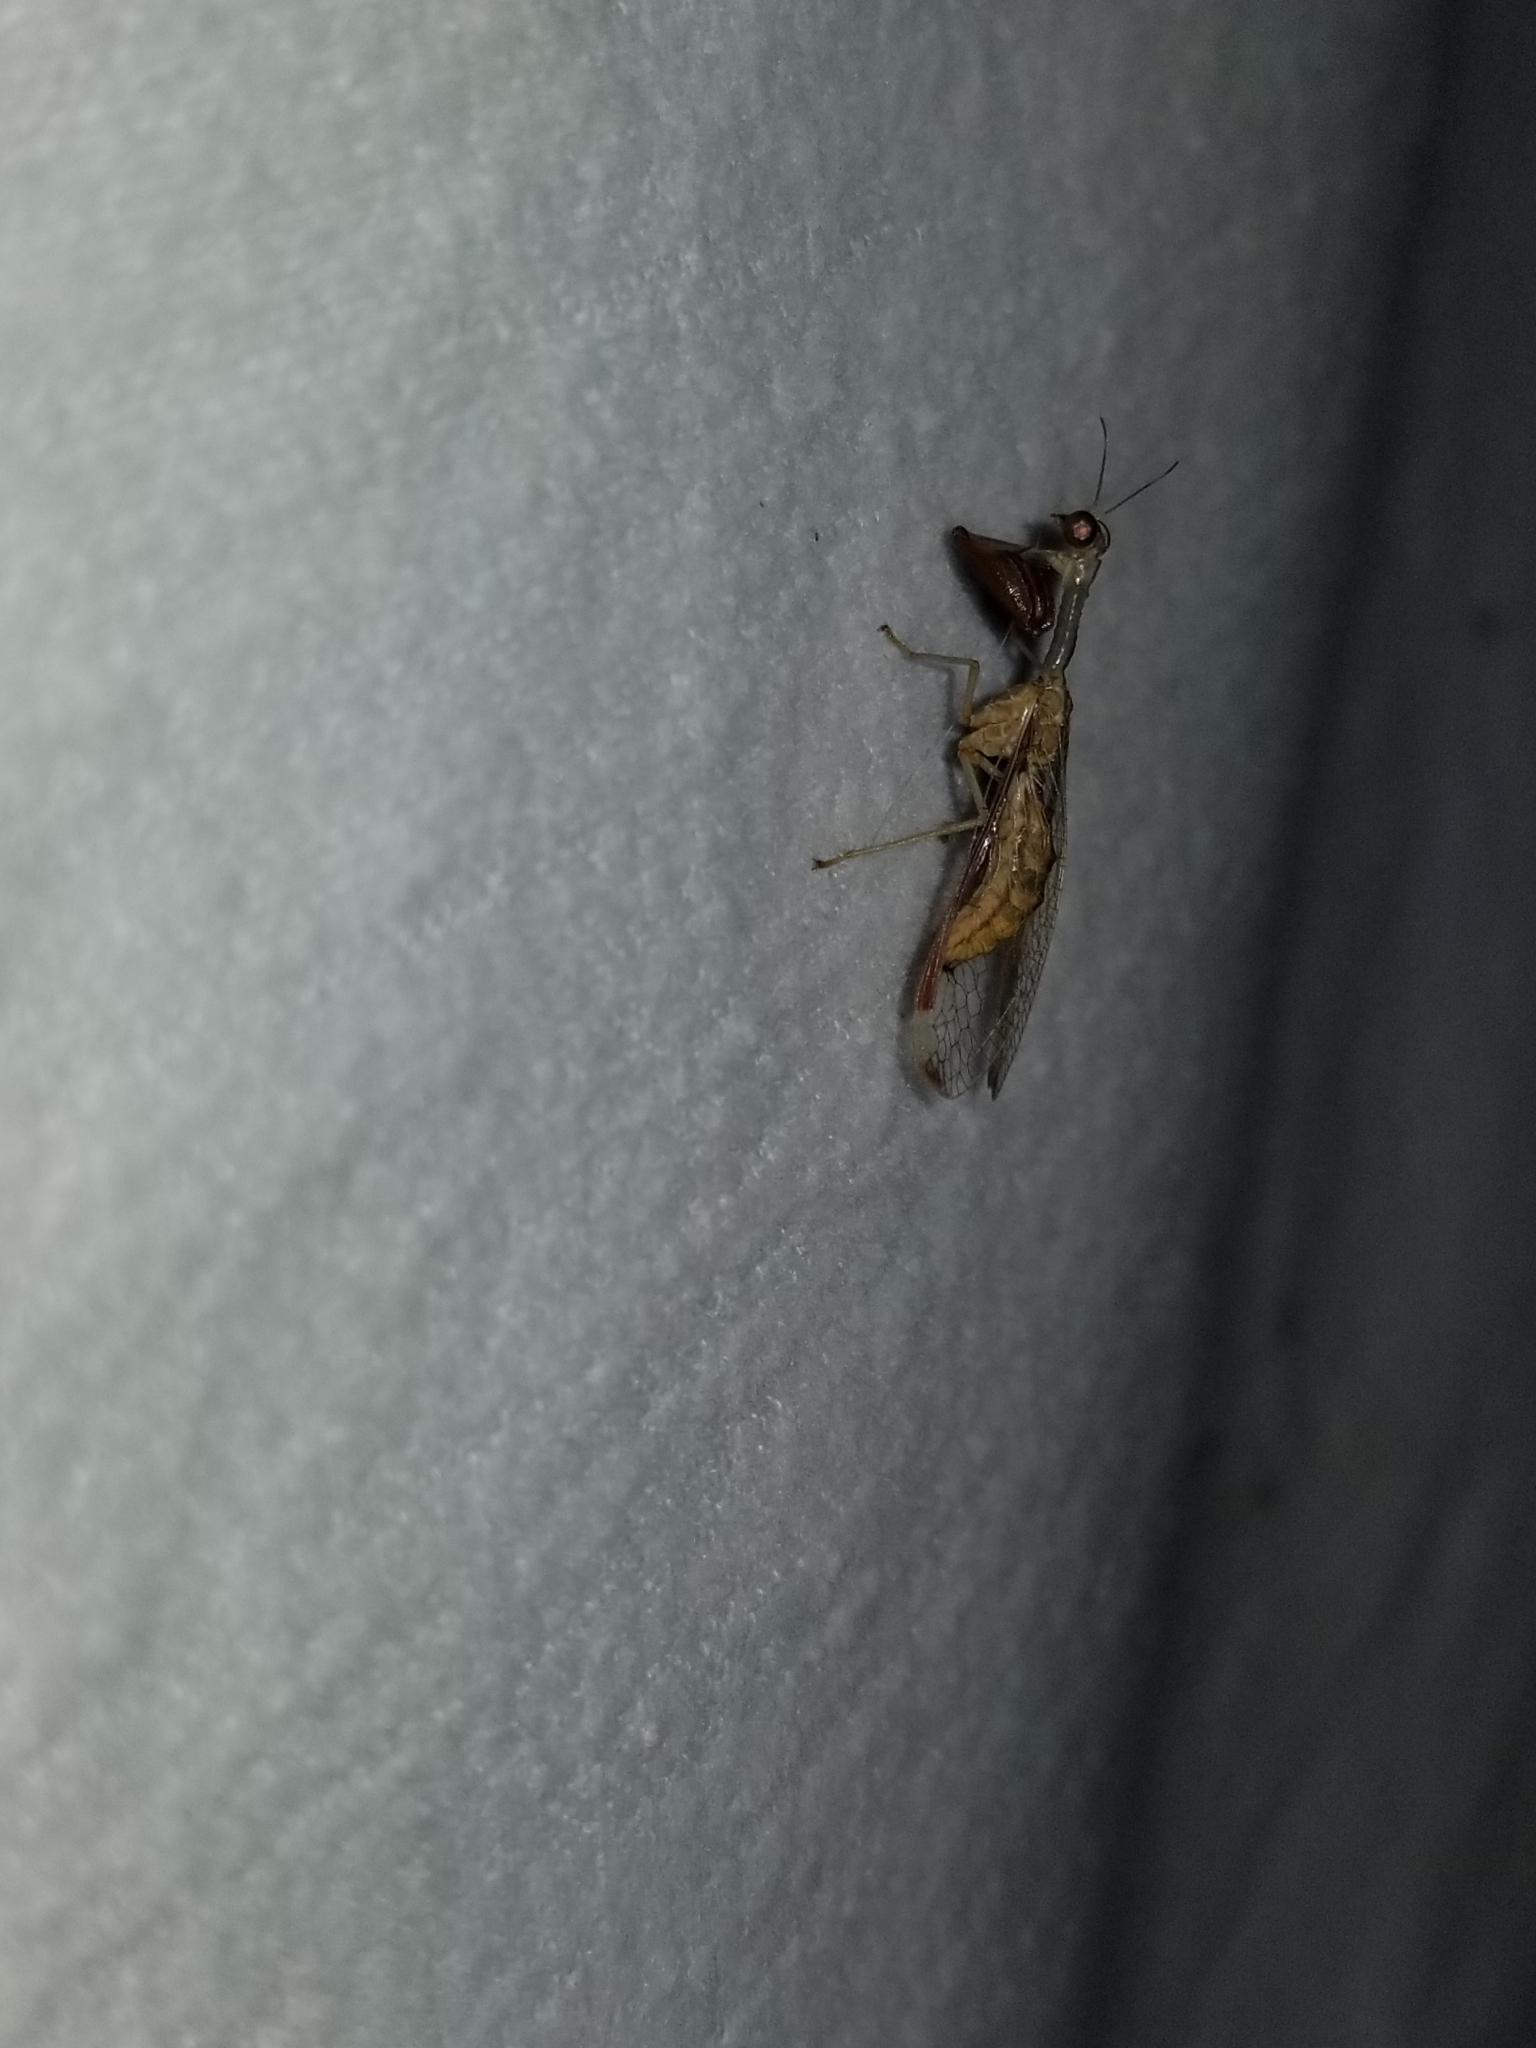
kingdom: Animalia
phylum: Arthropoda
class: Insecta
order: Neuroptera
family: Mantispidae
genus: Dicromantispa
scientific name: Dicromantispa interrupta
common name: Four-spotted mantidfly
